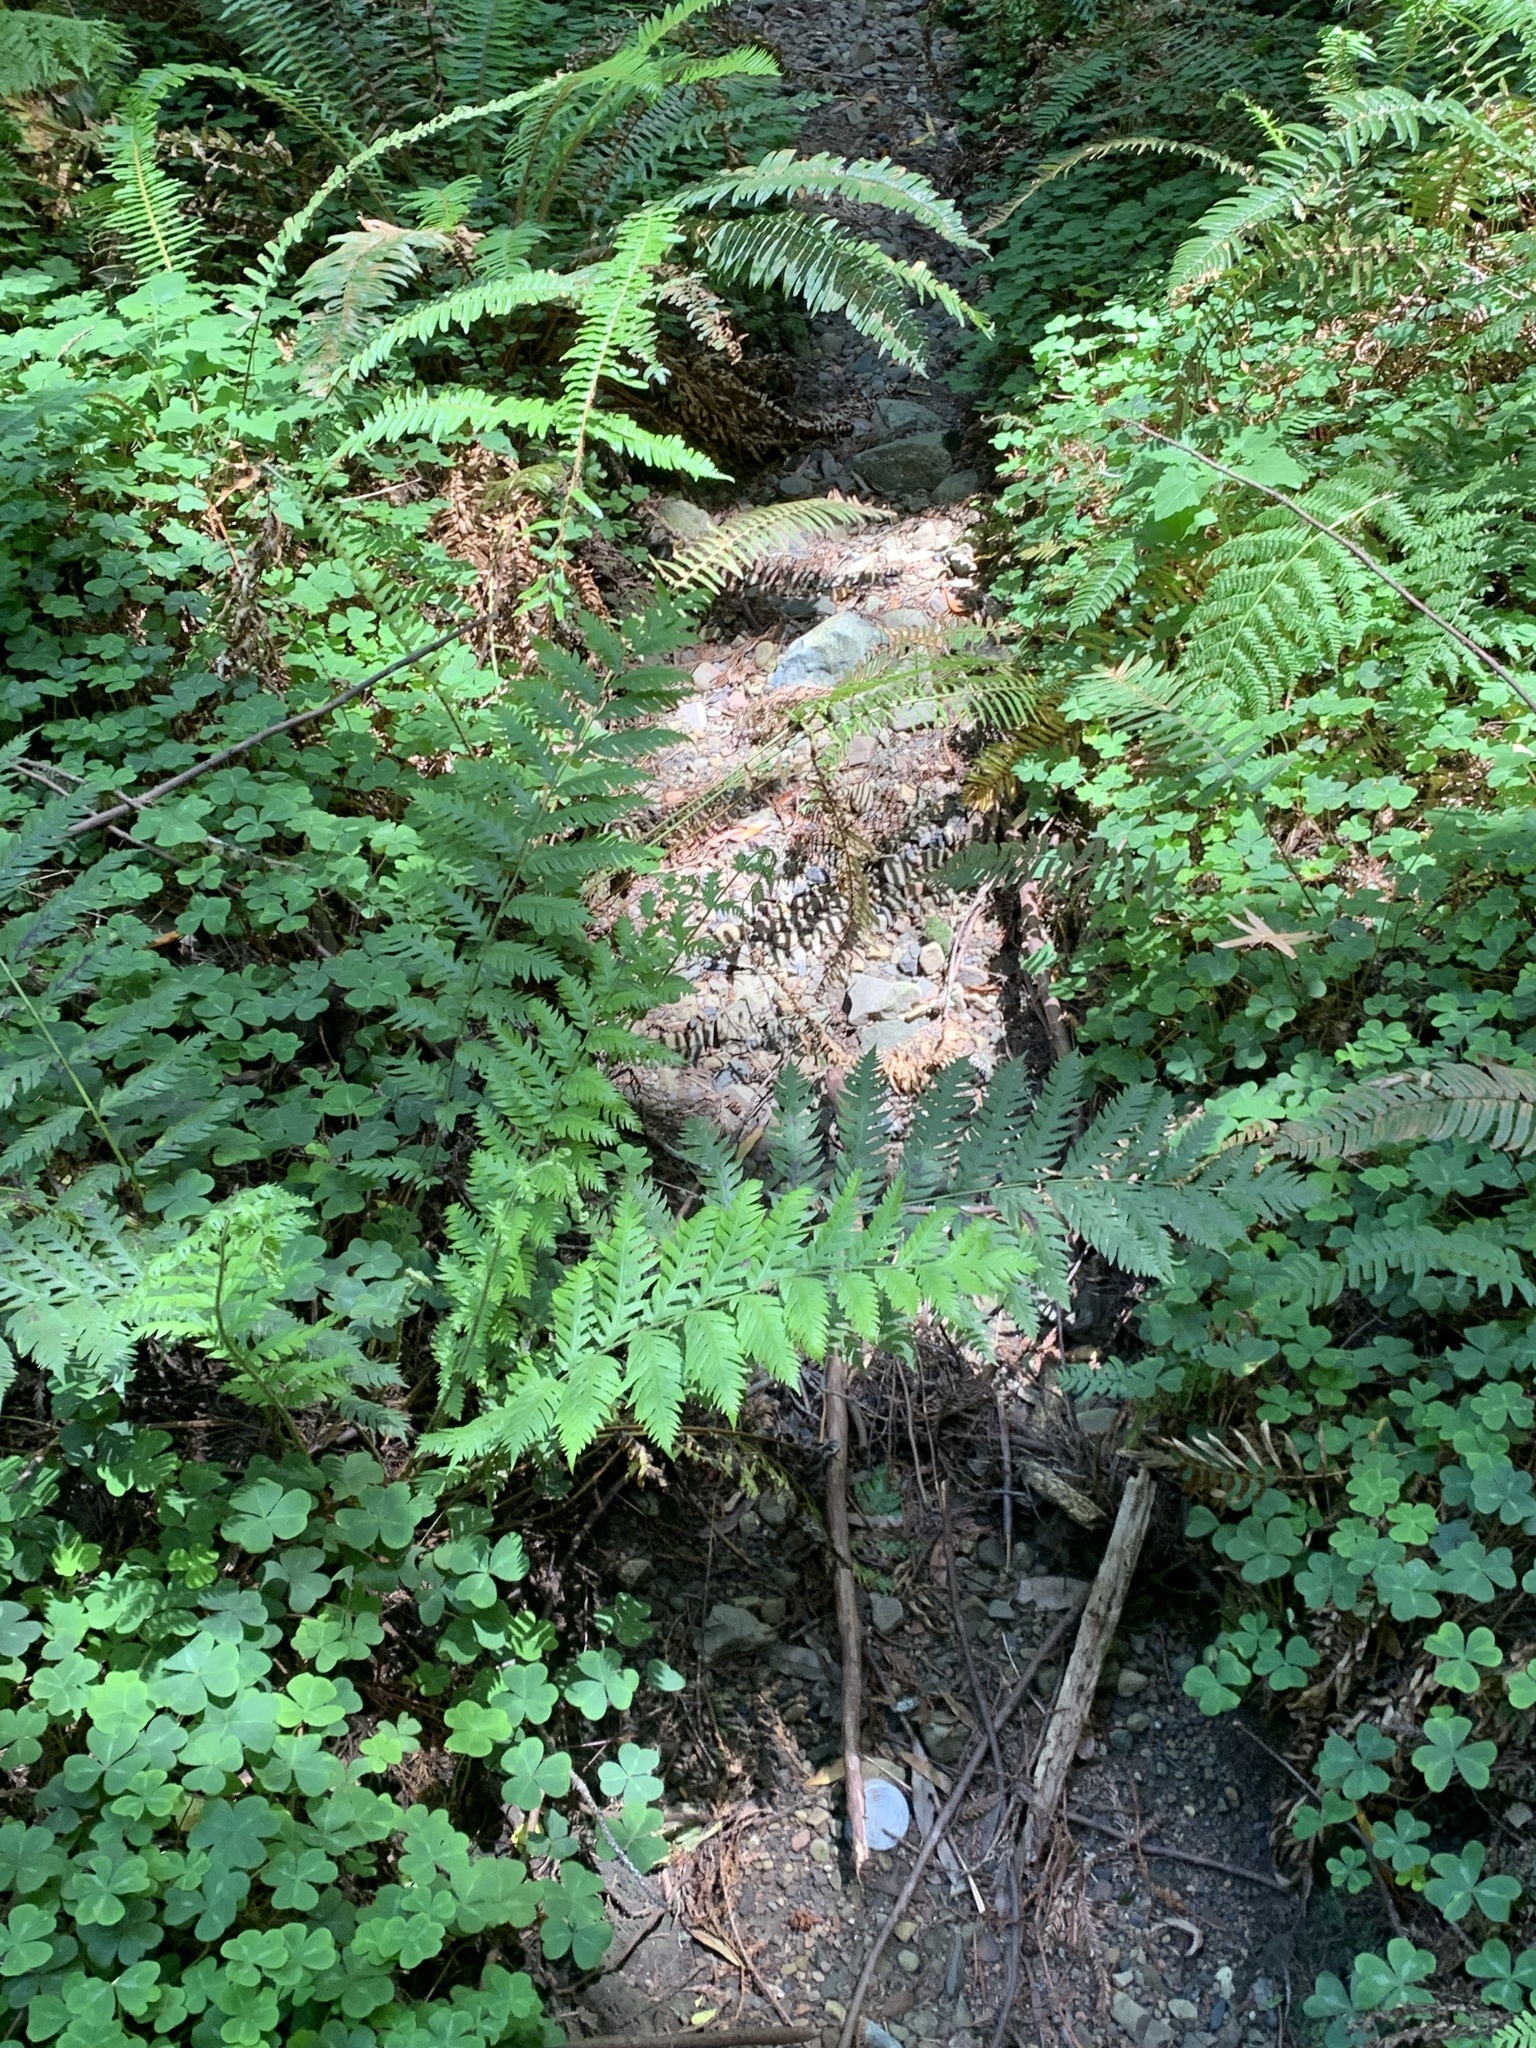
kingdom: Plantae
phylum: Tracheophyta
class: Polypodiopsida
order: Polypodiales
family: Blechnaceae
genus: Woodwardia
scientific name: Woodwardia fimbriata
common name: Giant chain fern
